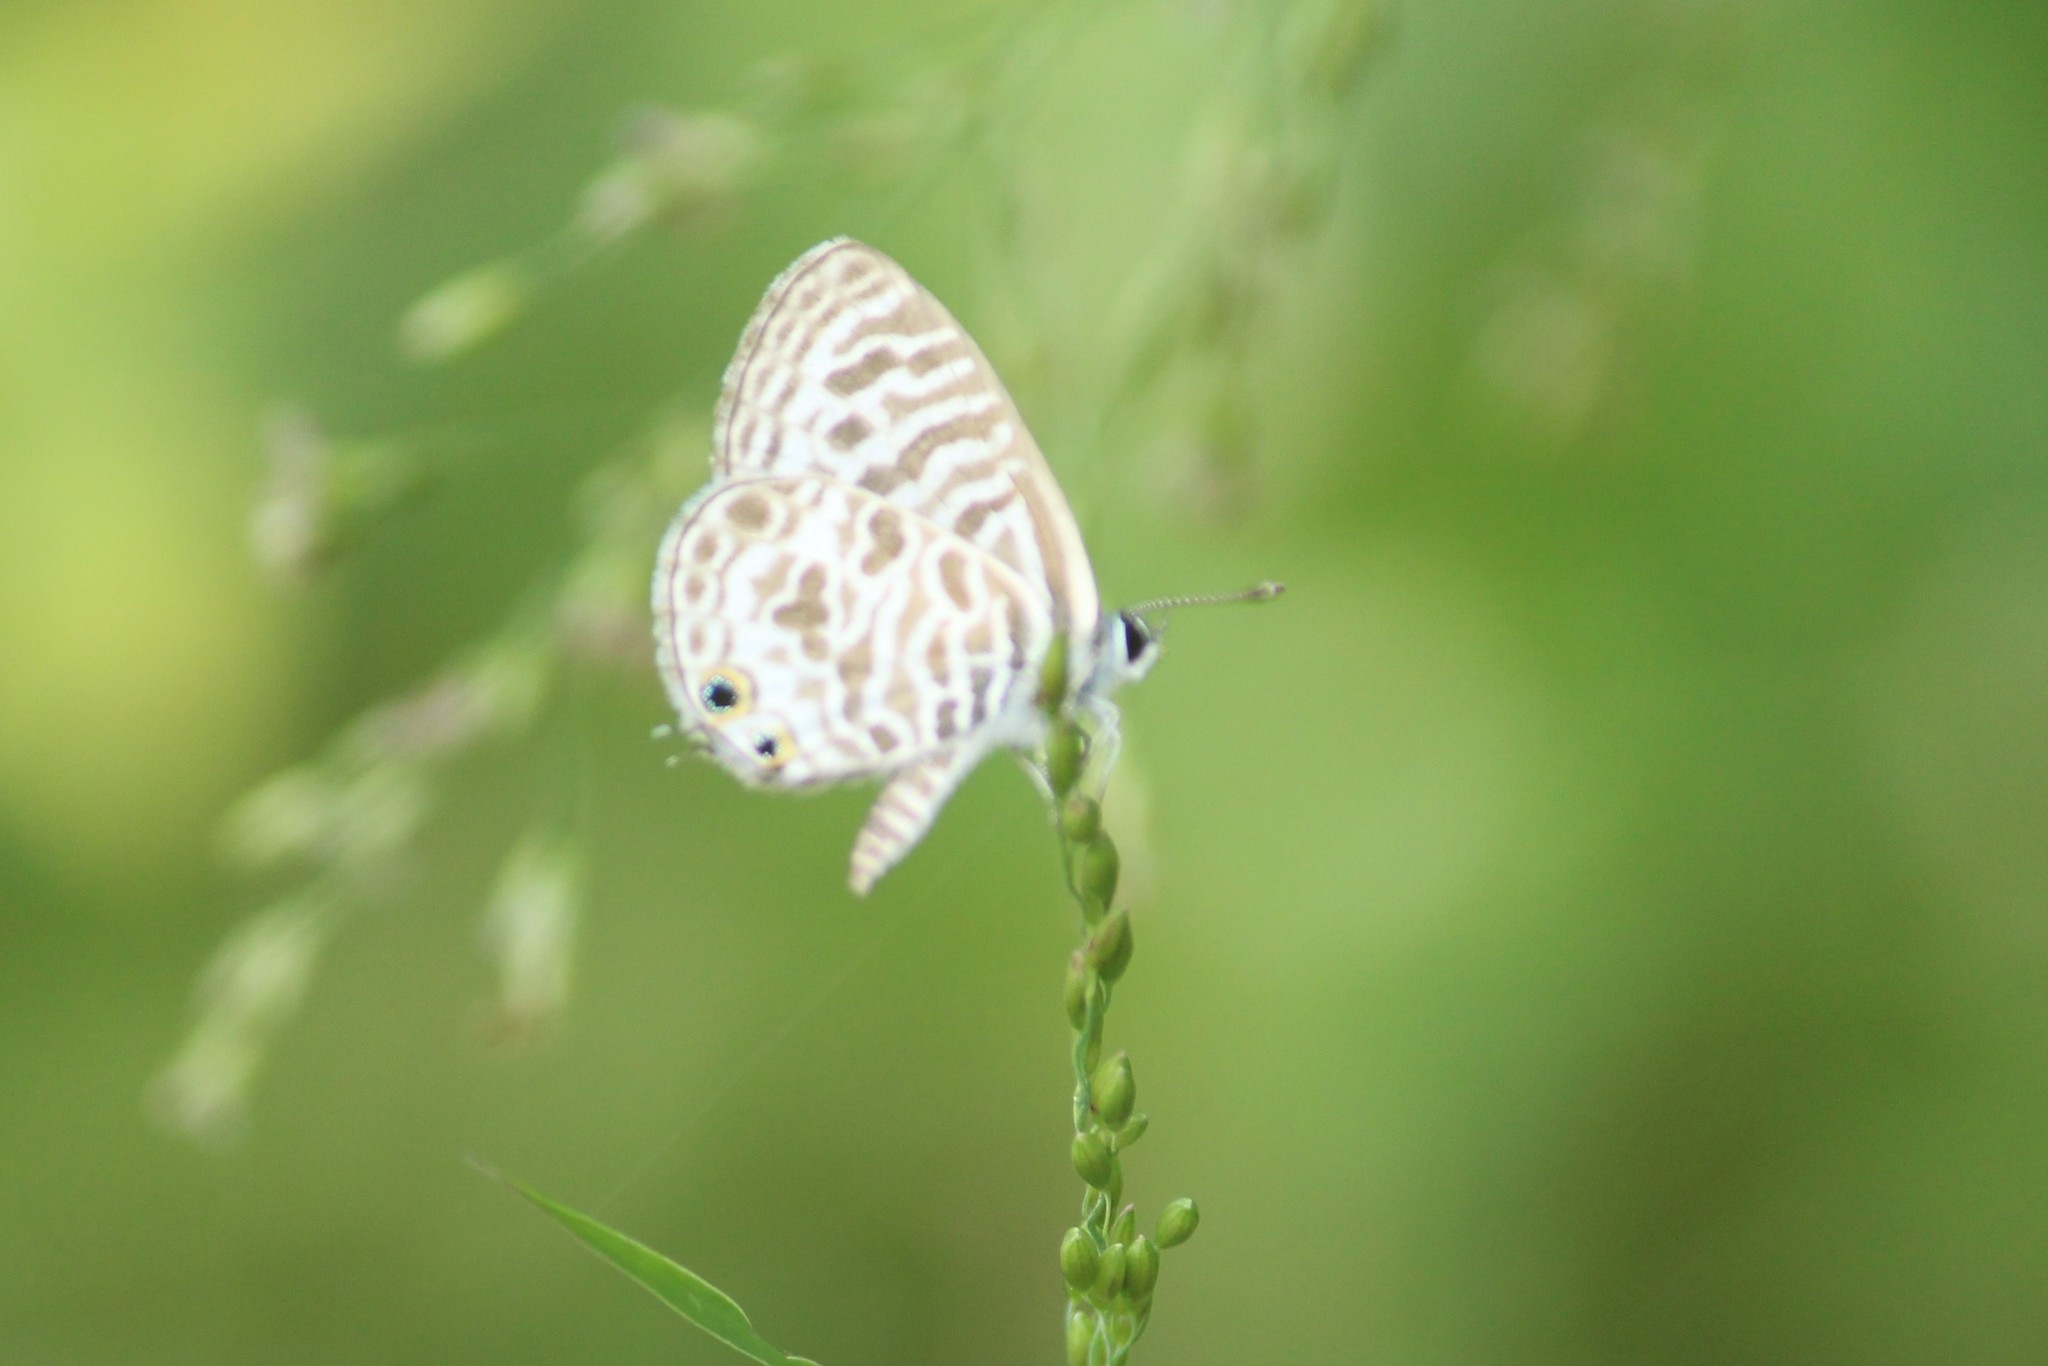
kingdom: Animalia
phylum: Arthropoda
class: Insecta
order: Lepidoptera
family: Lycaenidae
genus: Leptotes
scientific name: Leptotes plinius
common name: Zebra blue
